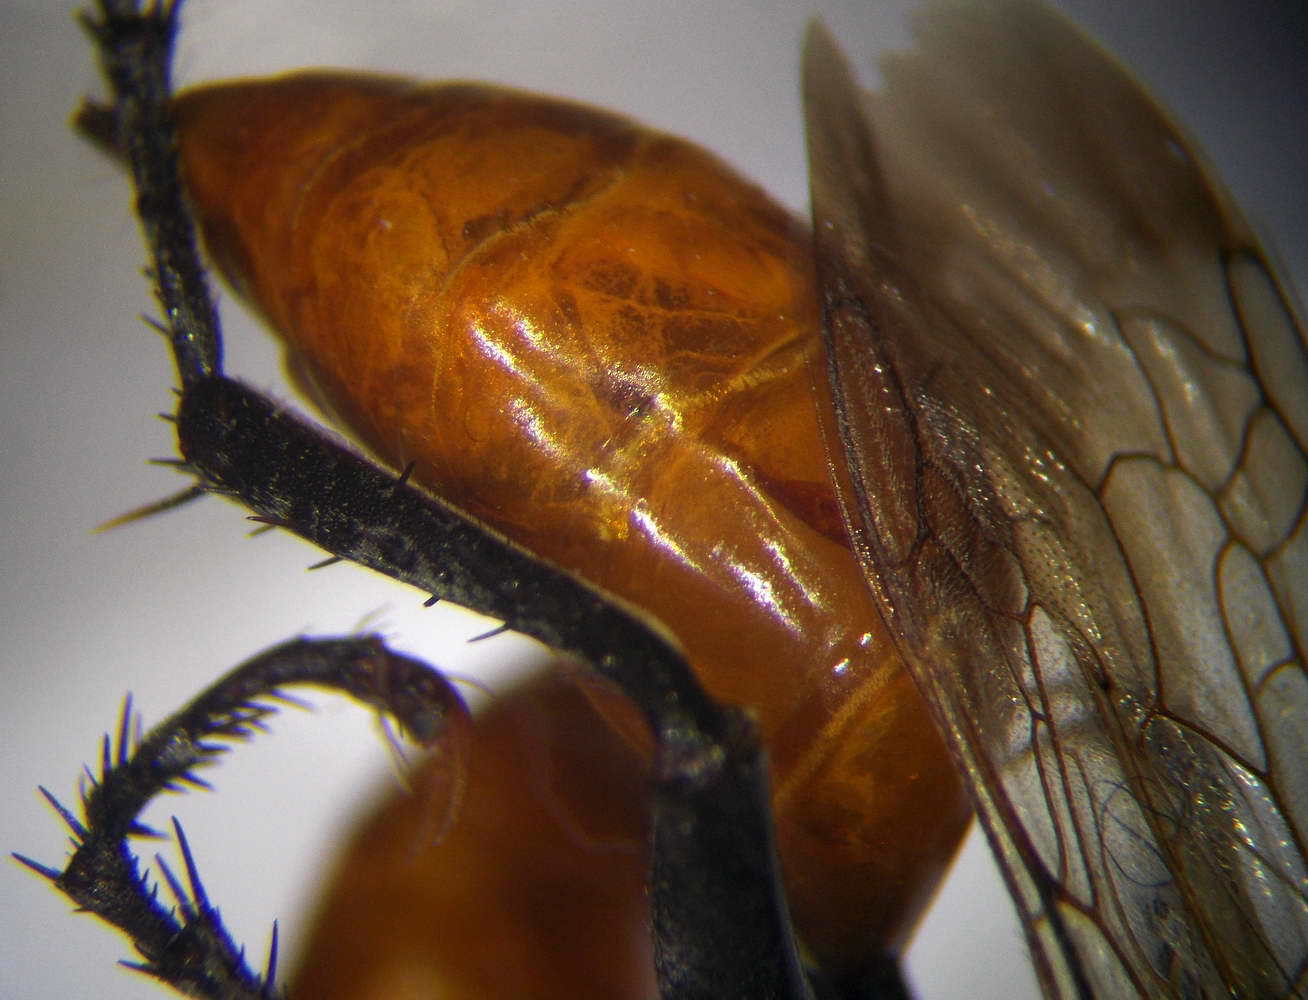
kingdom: Animalia
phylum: Arthropoda
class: Insecta
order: Hymenoptera
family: Sphecidae
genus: Palmodes
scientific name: Palmodes melanarius
